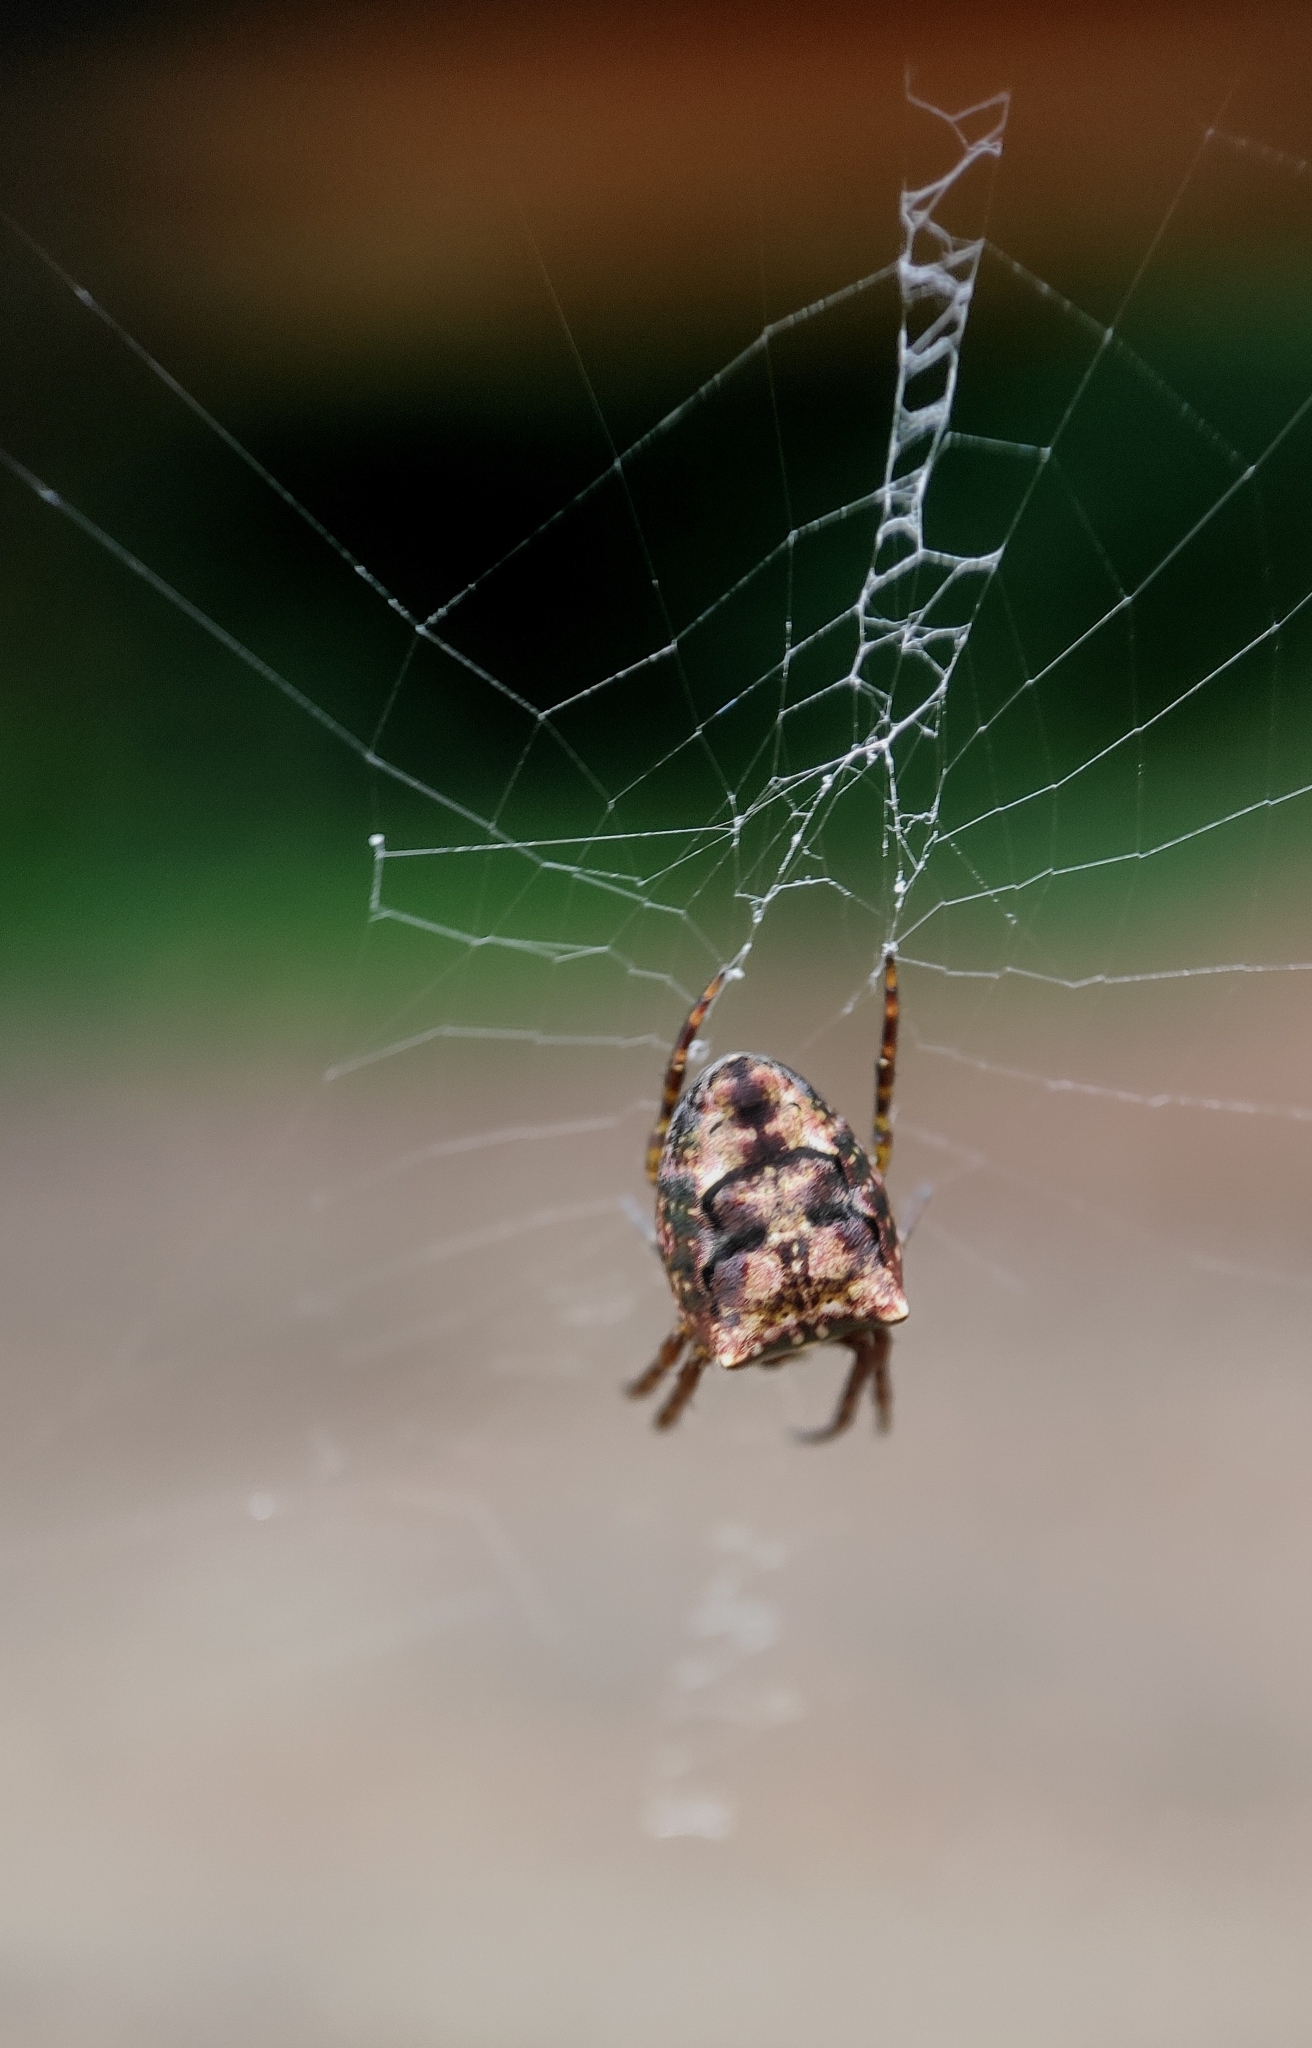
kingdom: Animalia
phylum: Arthropoda
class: Arachnida
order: Araneae
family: Araneidae
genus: Plebs
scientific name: Plebs mitratus
